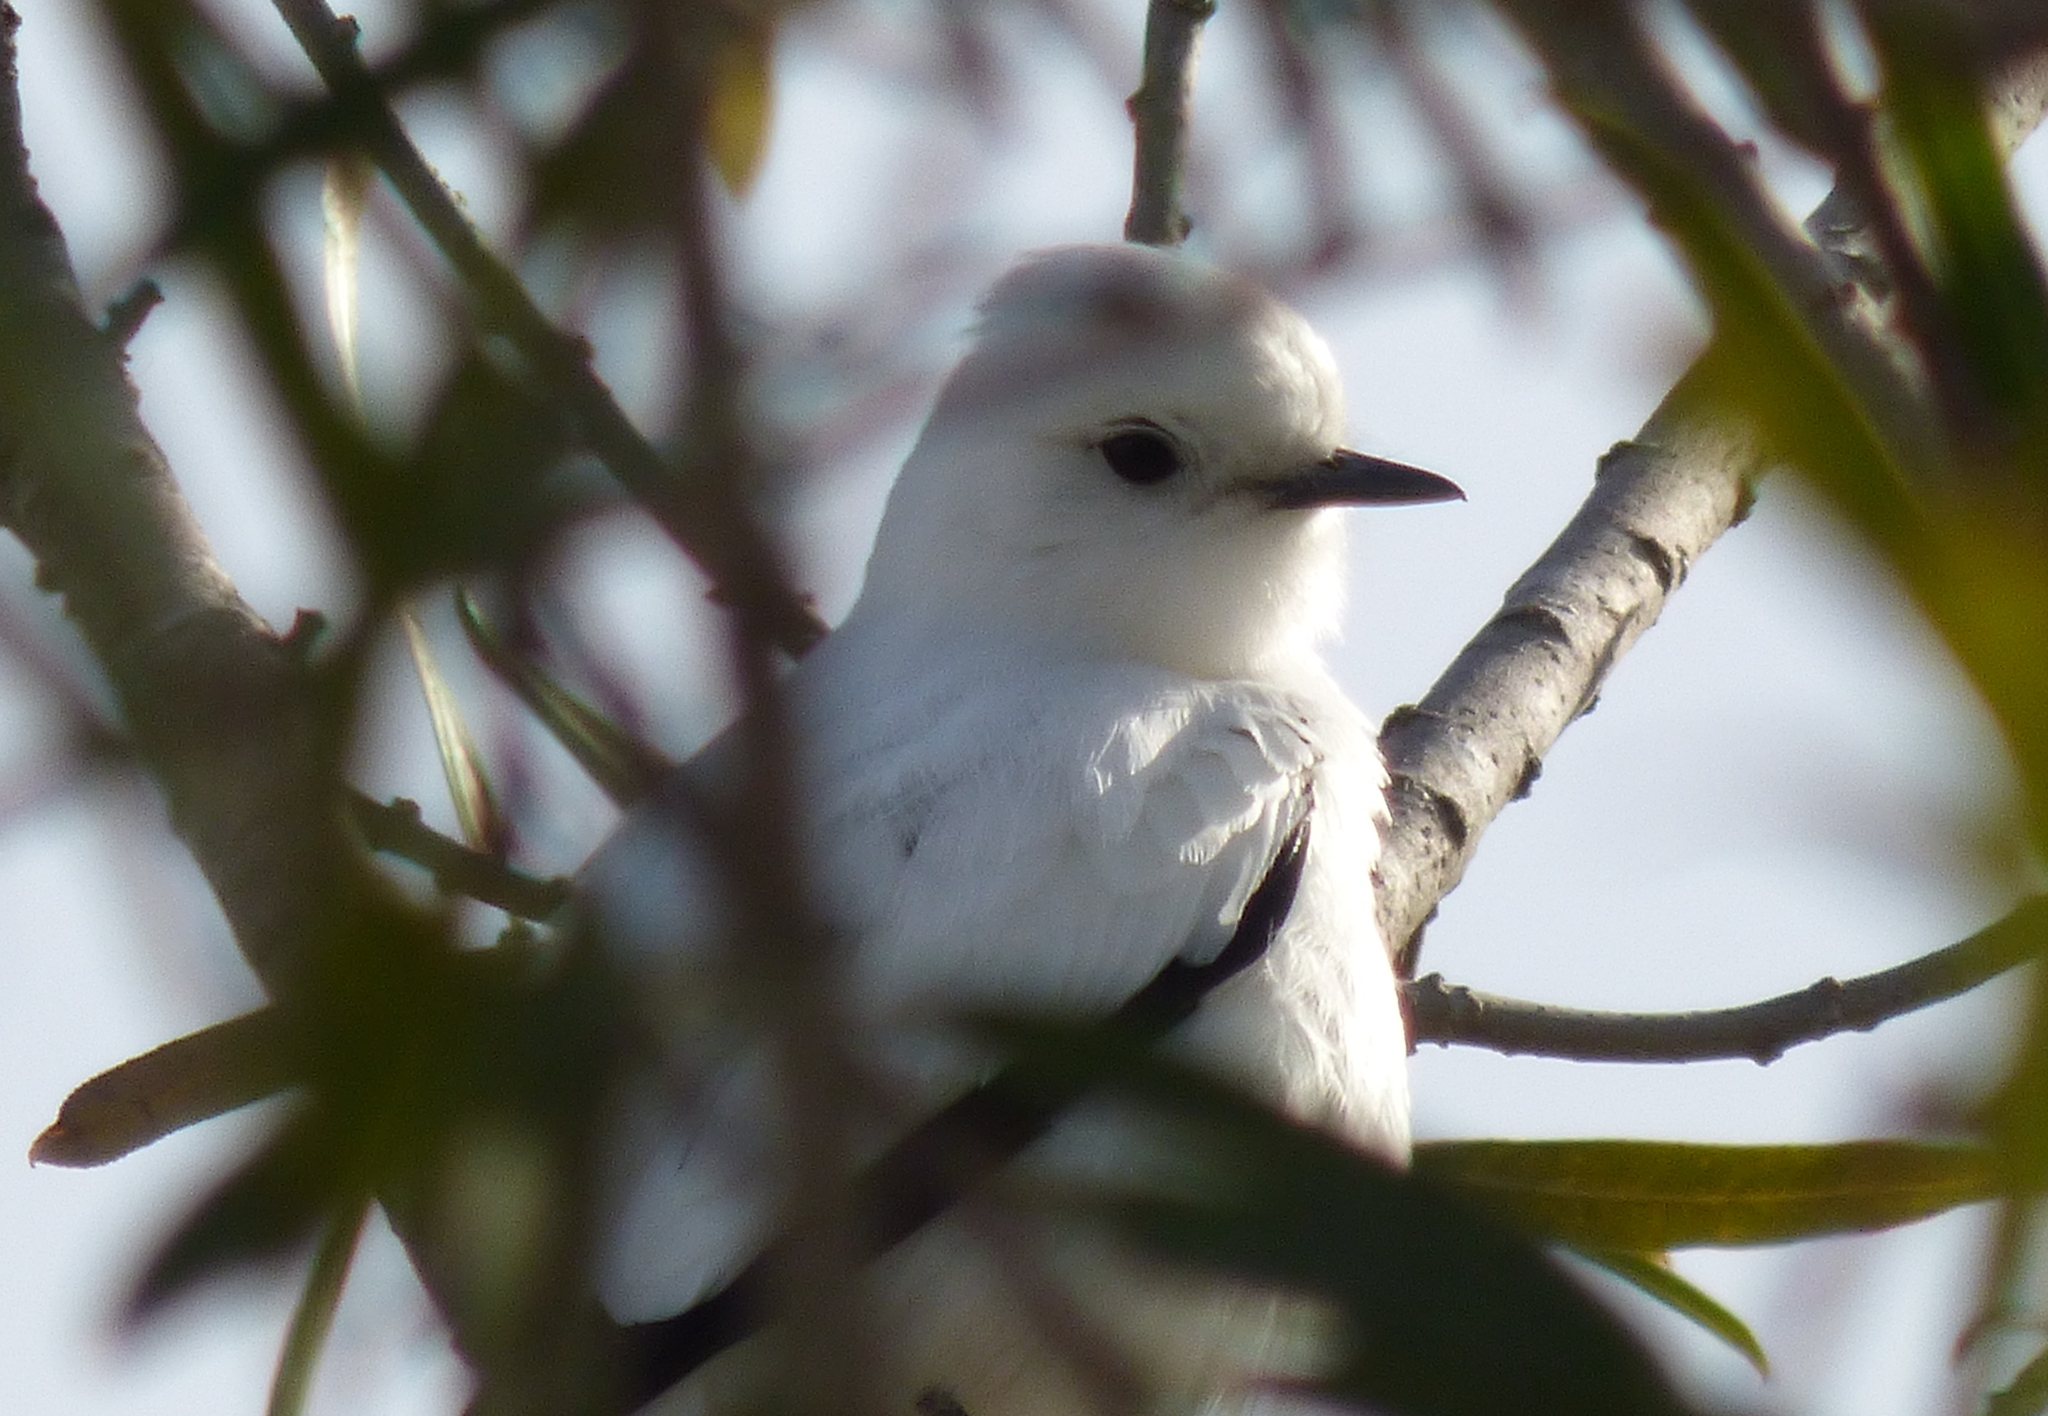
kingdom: Animalia
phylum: Chordata
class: Aves
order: Passeriformes
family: Tyrannidae
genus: Xolmis
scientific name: Xolmis irupero
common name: White monjita
